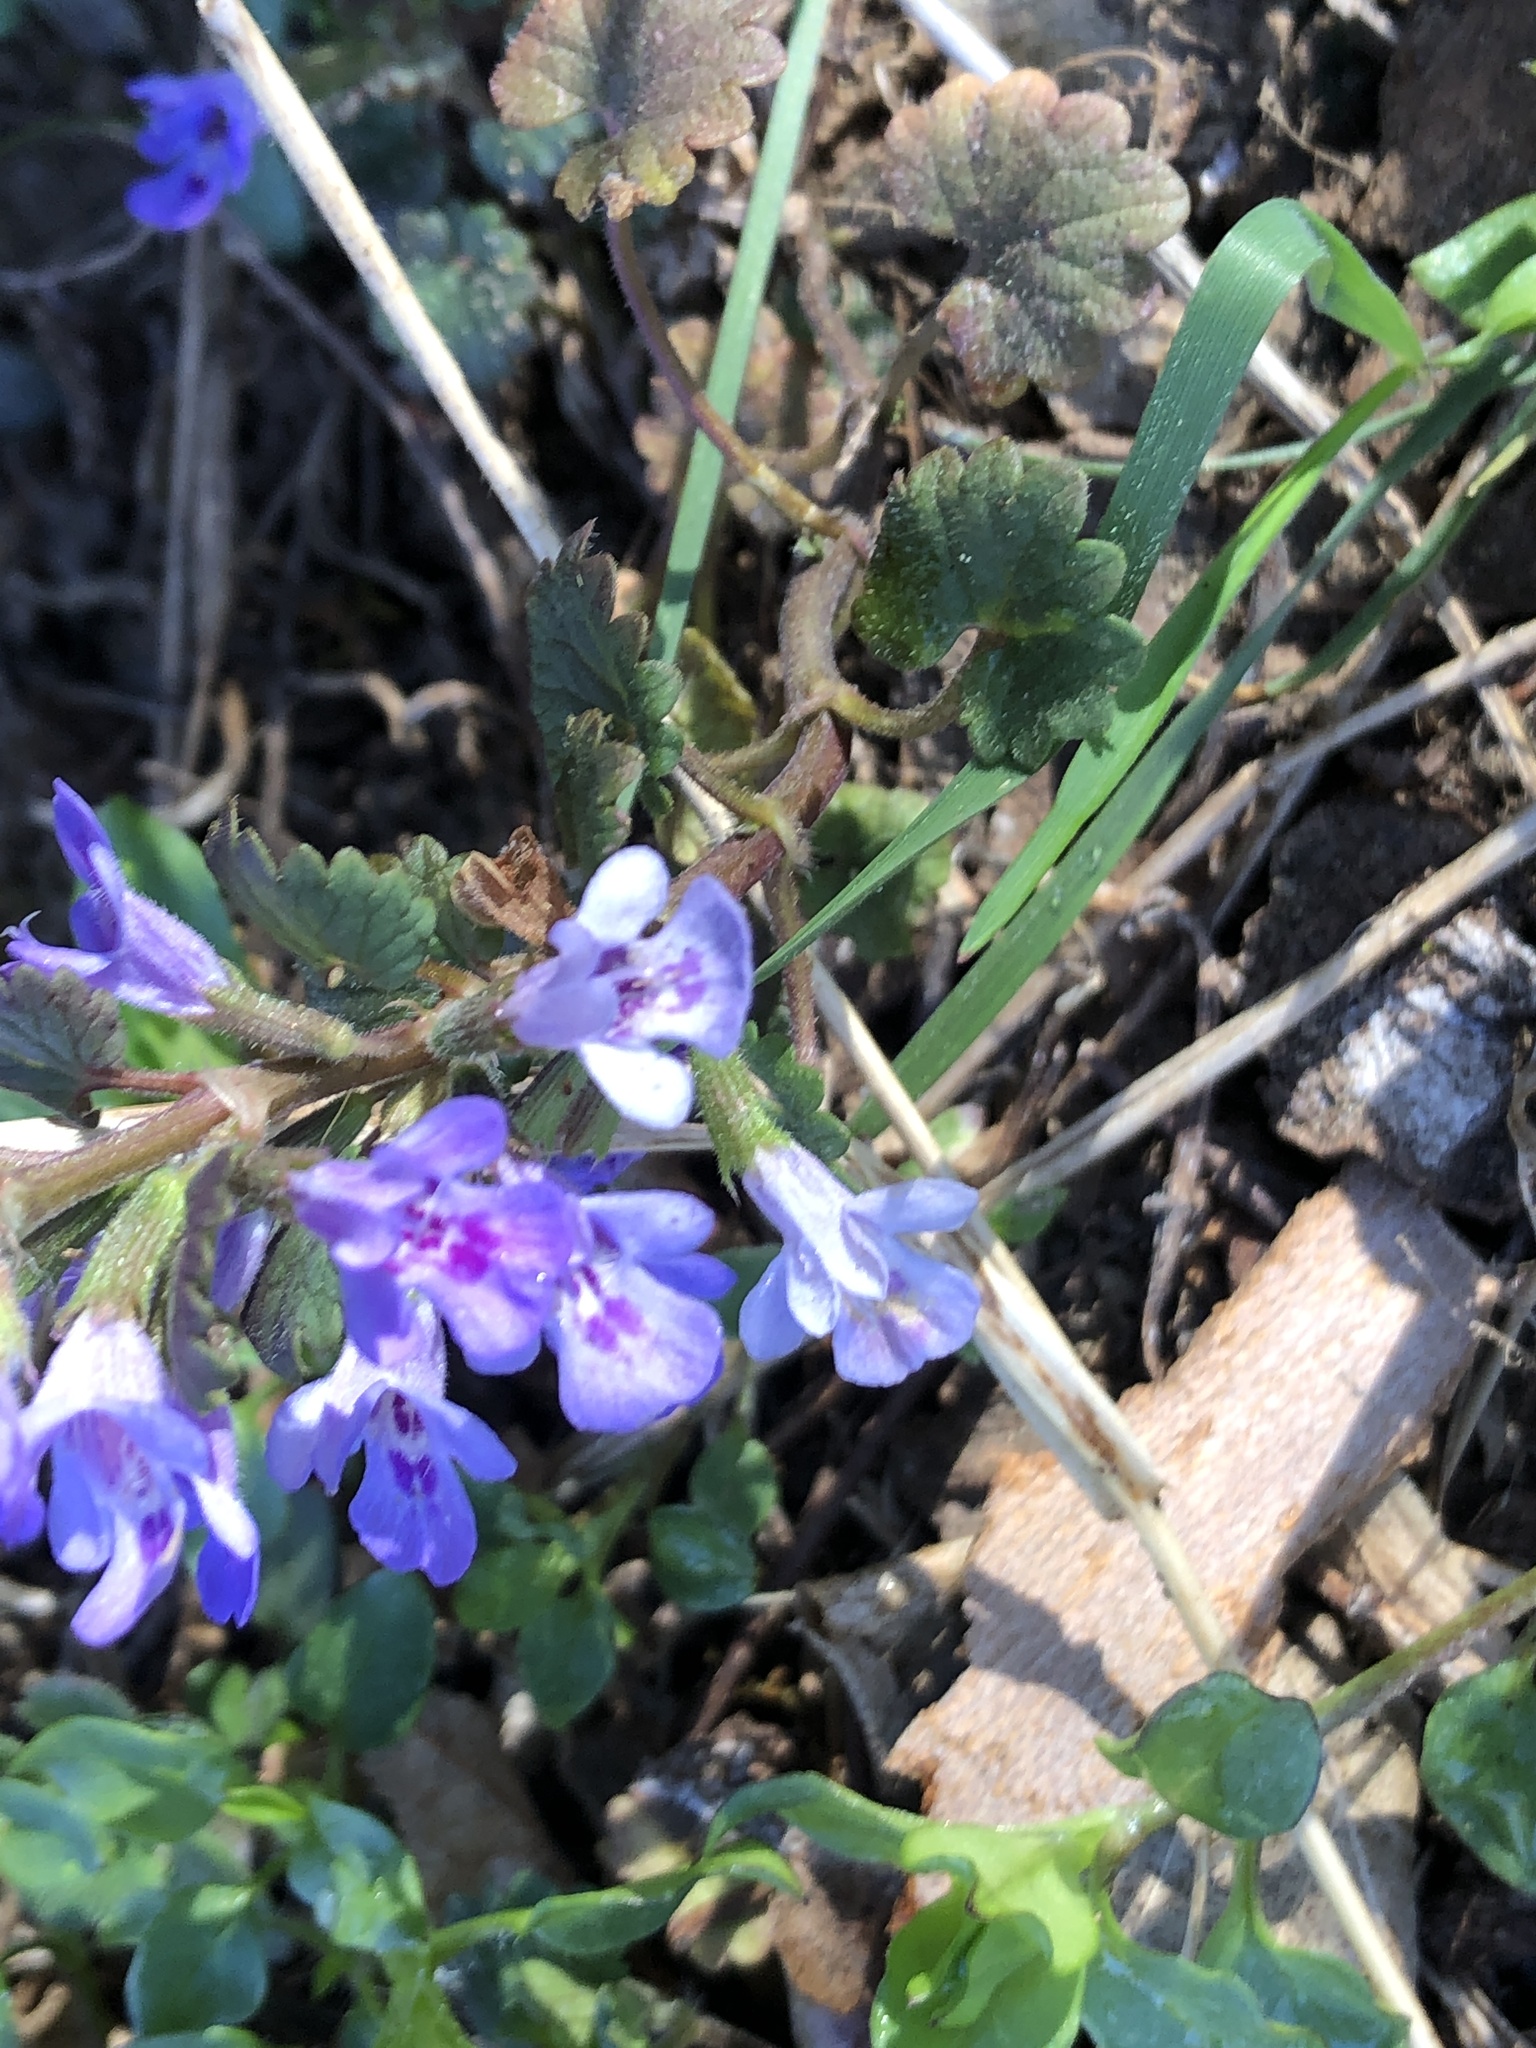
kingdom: Plantae
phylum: Tracheophyta
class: Magnoliopsida
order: Lamiales
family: Lamiaceae
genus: Glechoma
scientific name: Glechoma hederacea
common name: Ground ivy
